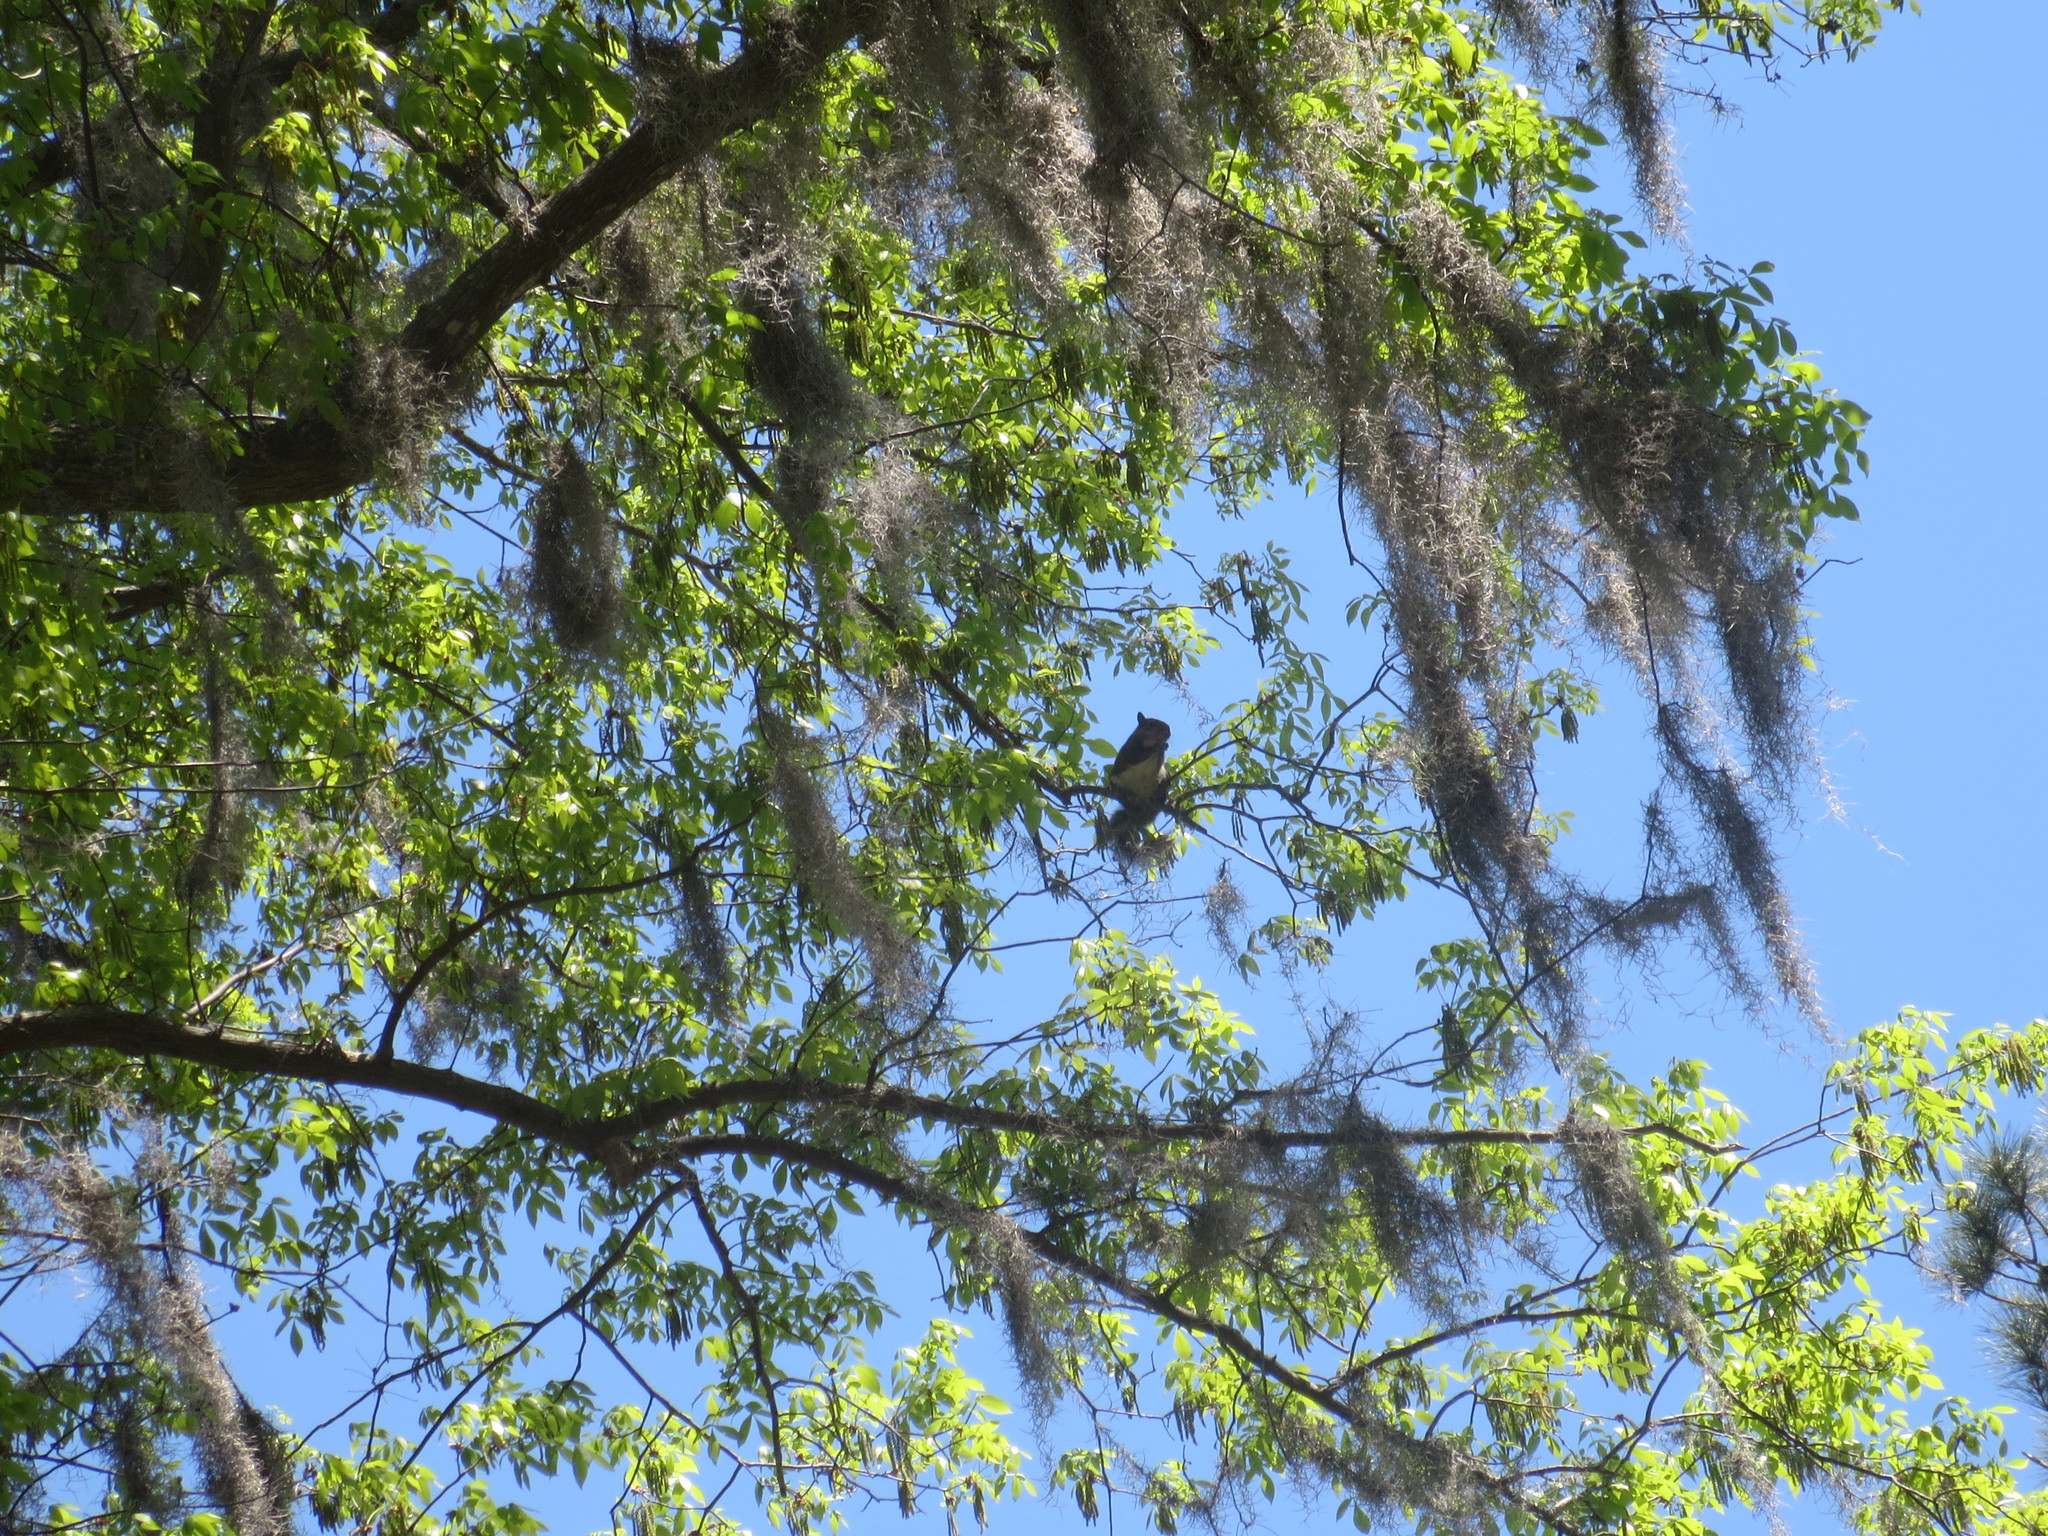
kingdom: Animalia
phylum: Chordata
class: Mammalia
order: Rodentia
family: Sciuridae
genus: Sciurus
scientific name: Sciurus carolinensis
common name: Eastern gray squirrel
